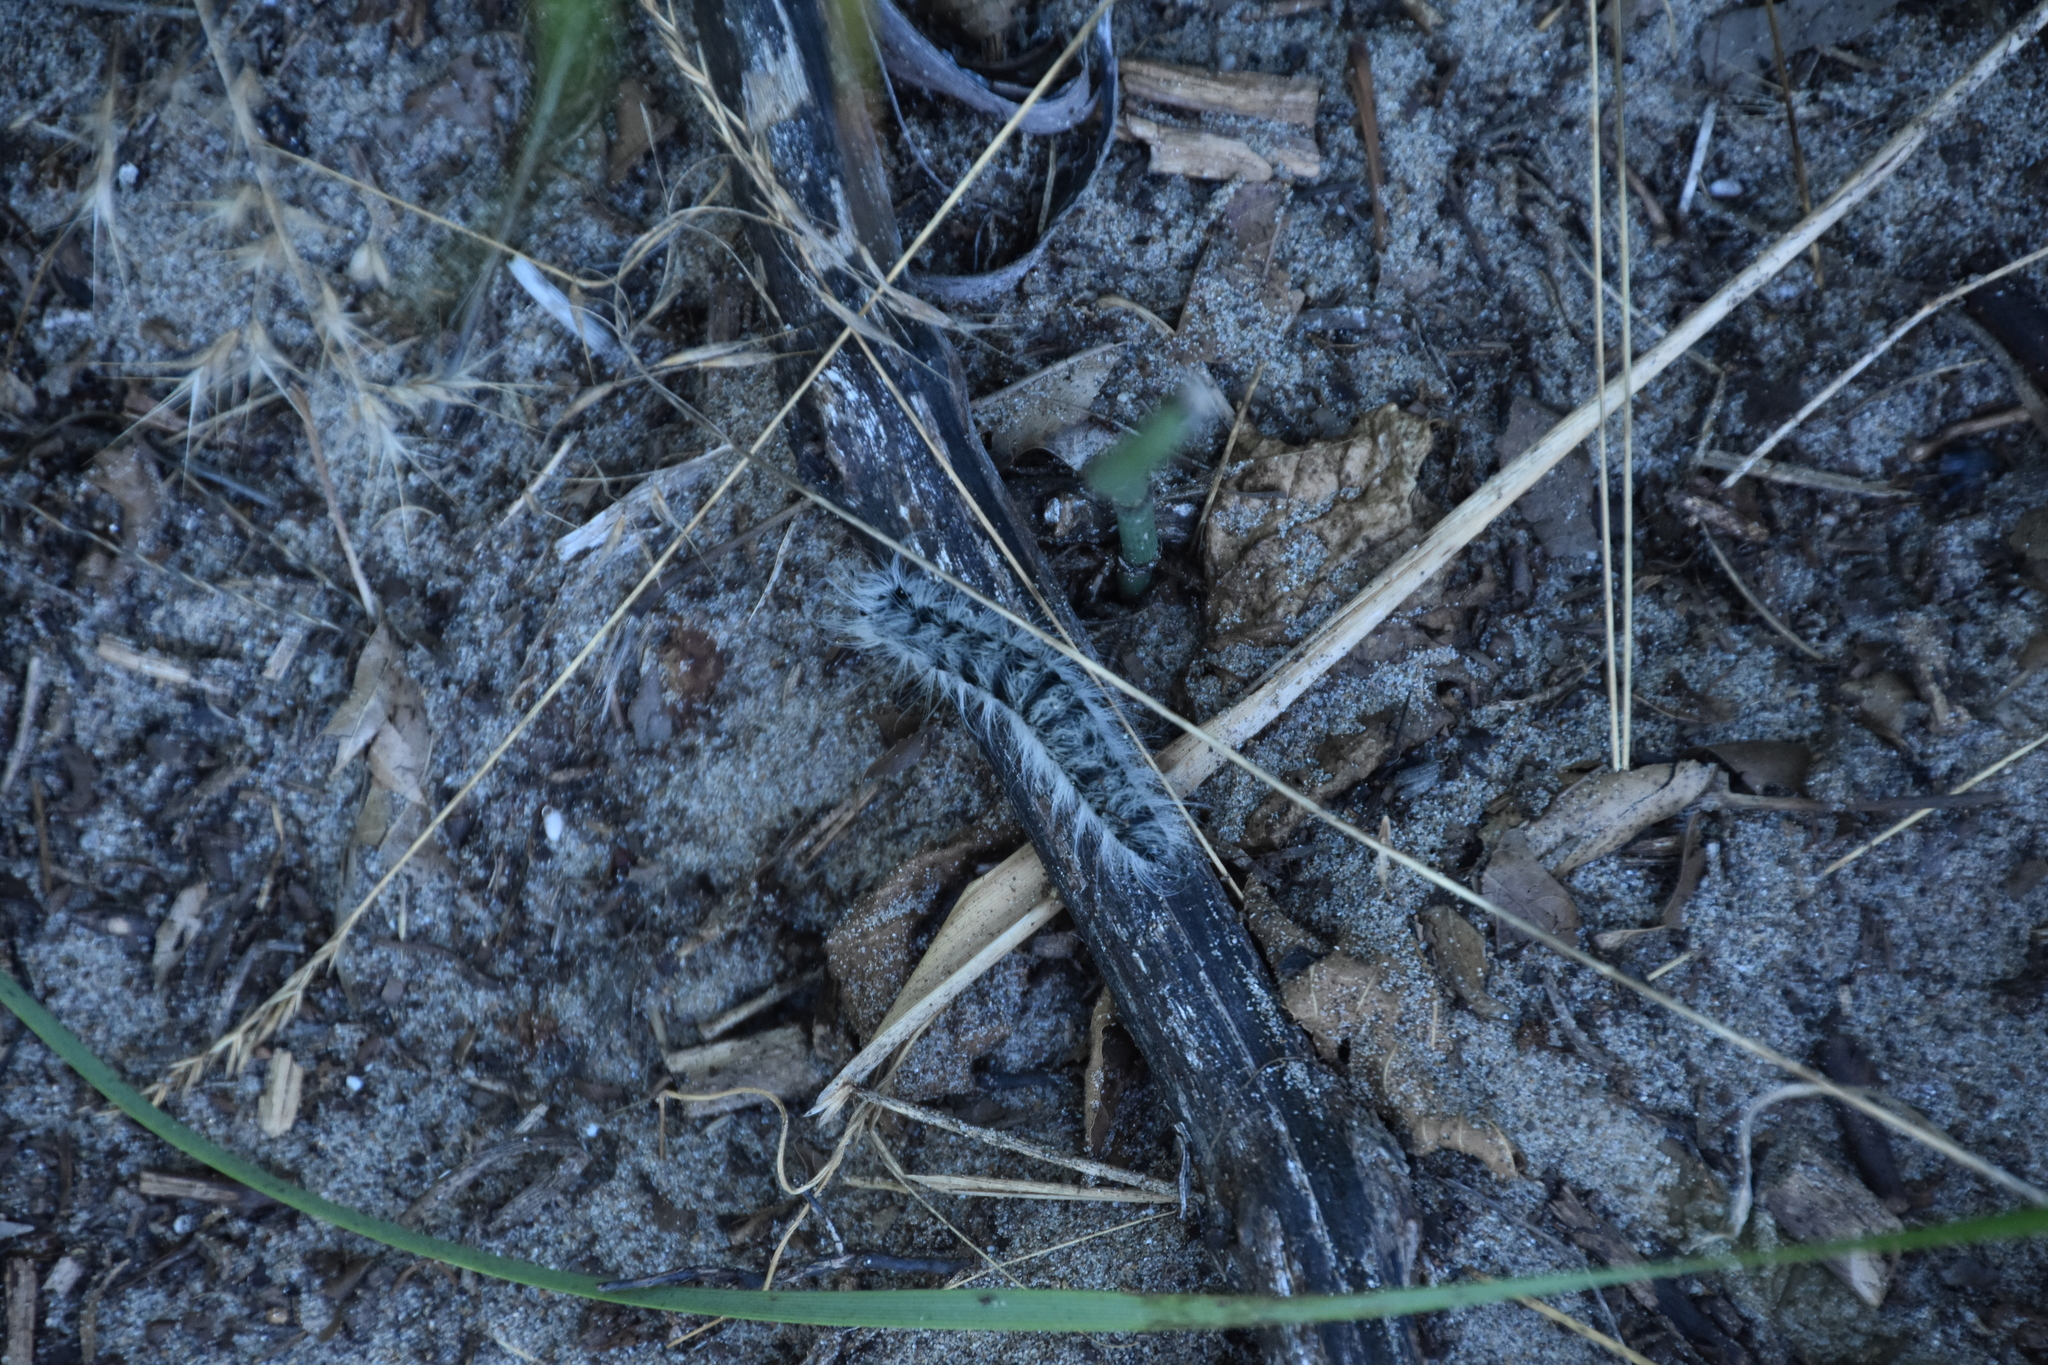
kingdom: Animalia
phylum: Arthropoda
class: Insecta
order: Lepidoptera
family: Notodontidae
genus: Datana
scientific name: Datana integerrima
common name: Walnut caterpillar
